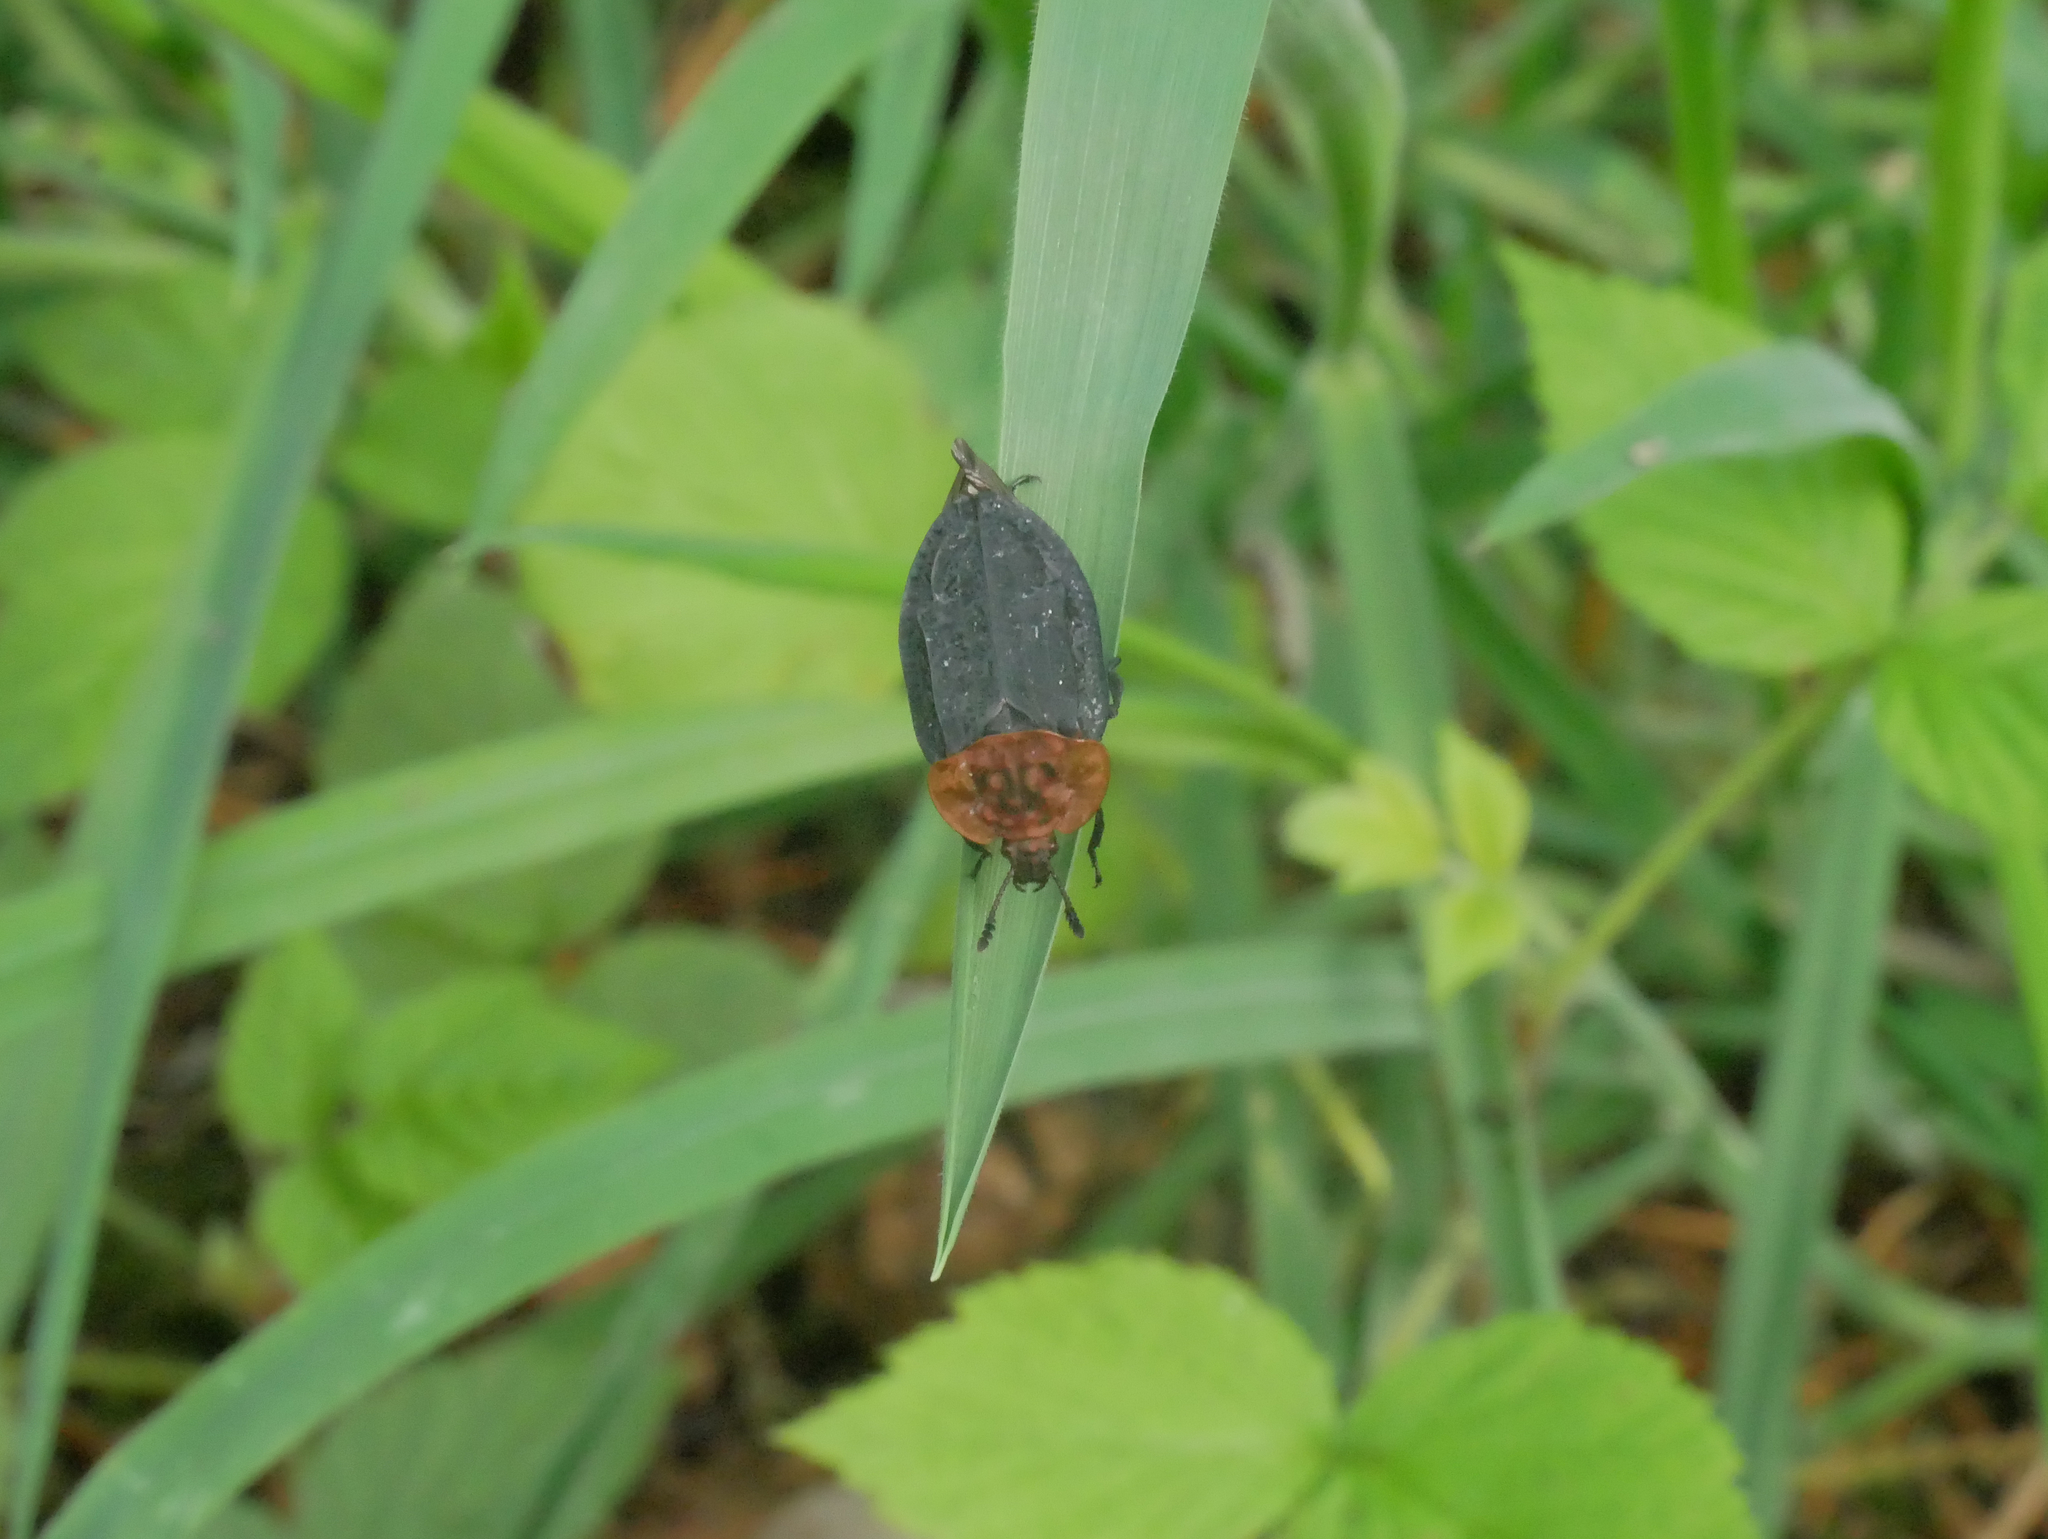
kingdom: Animalia
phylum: Arthropoda
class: Insecta
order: Coleoptera
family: Staphylinidae
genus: Oiceoptoma
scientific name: Oiceoptoma thoracicum
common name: Red-breasted carrion beetle
